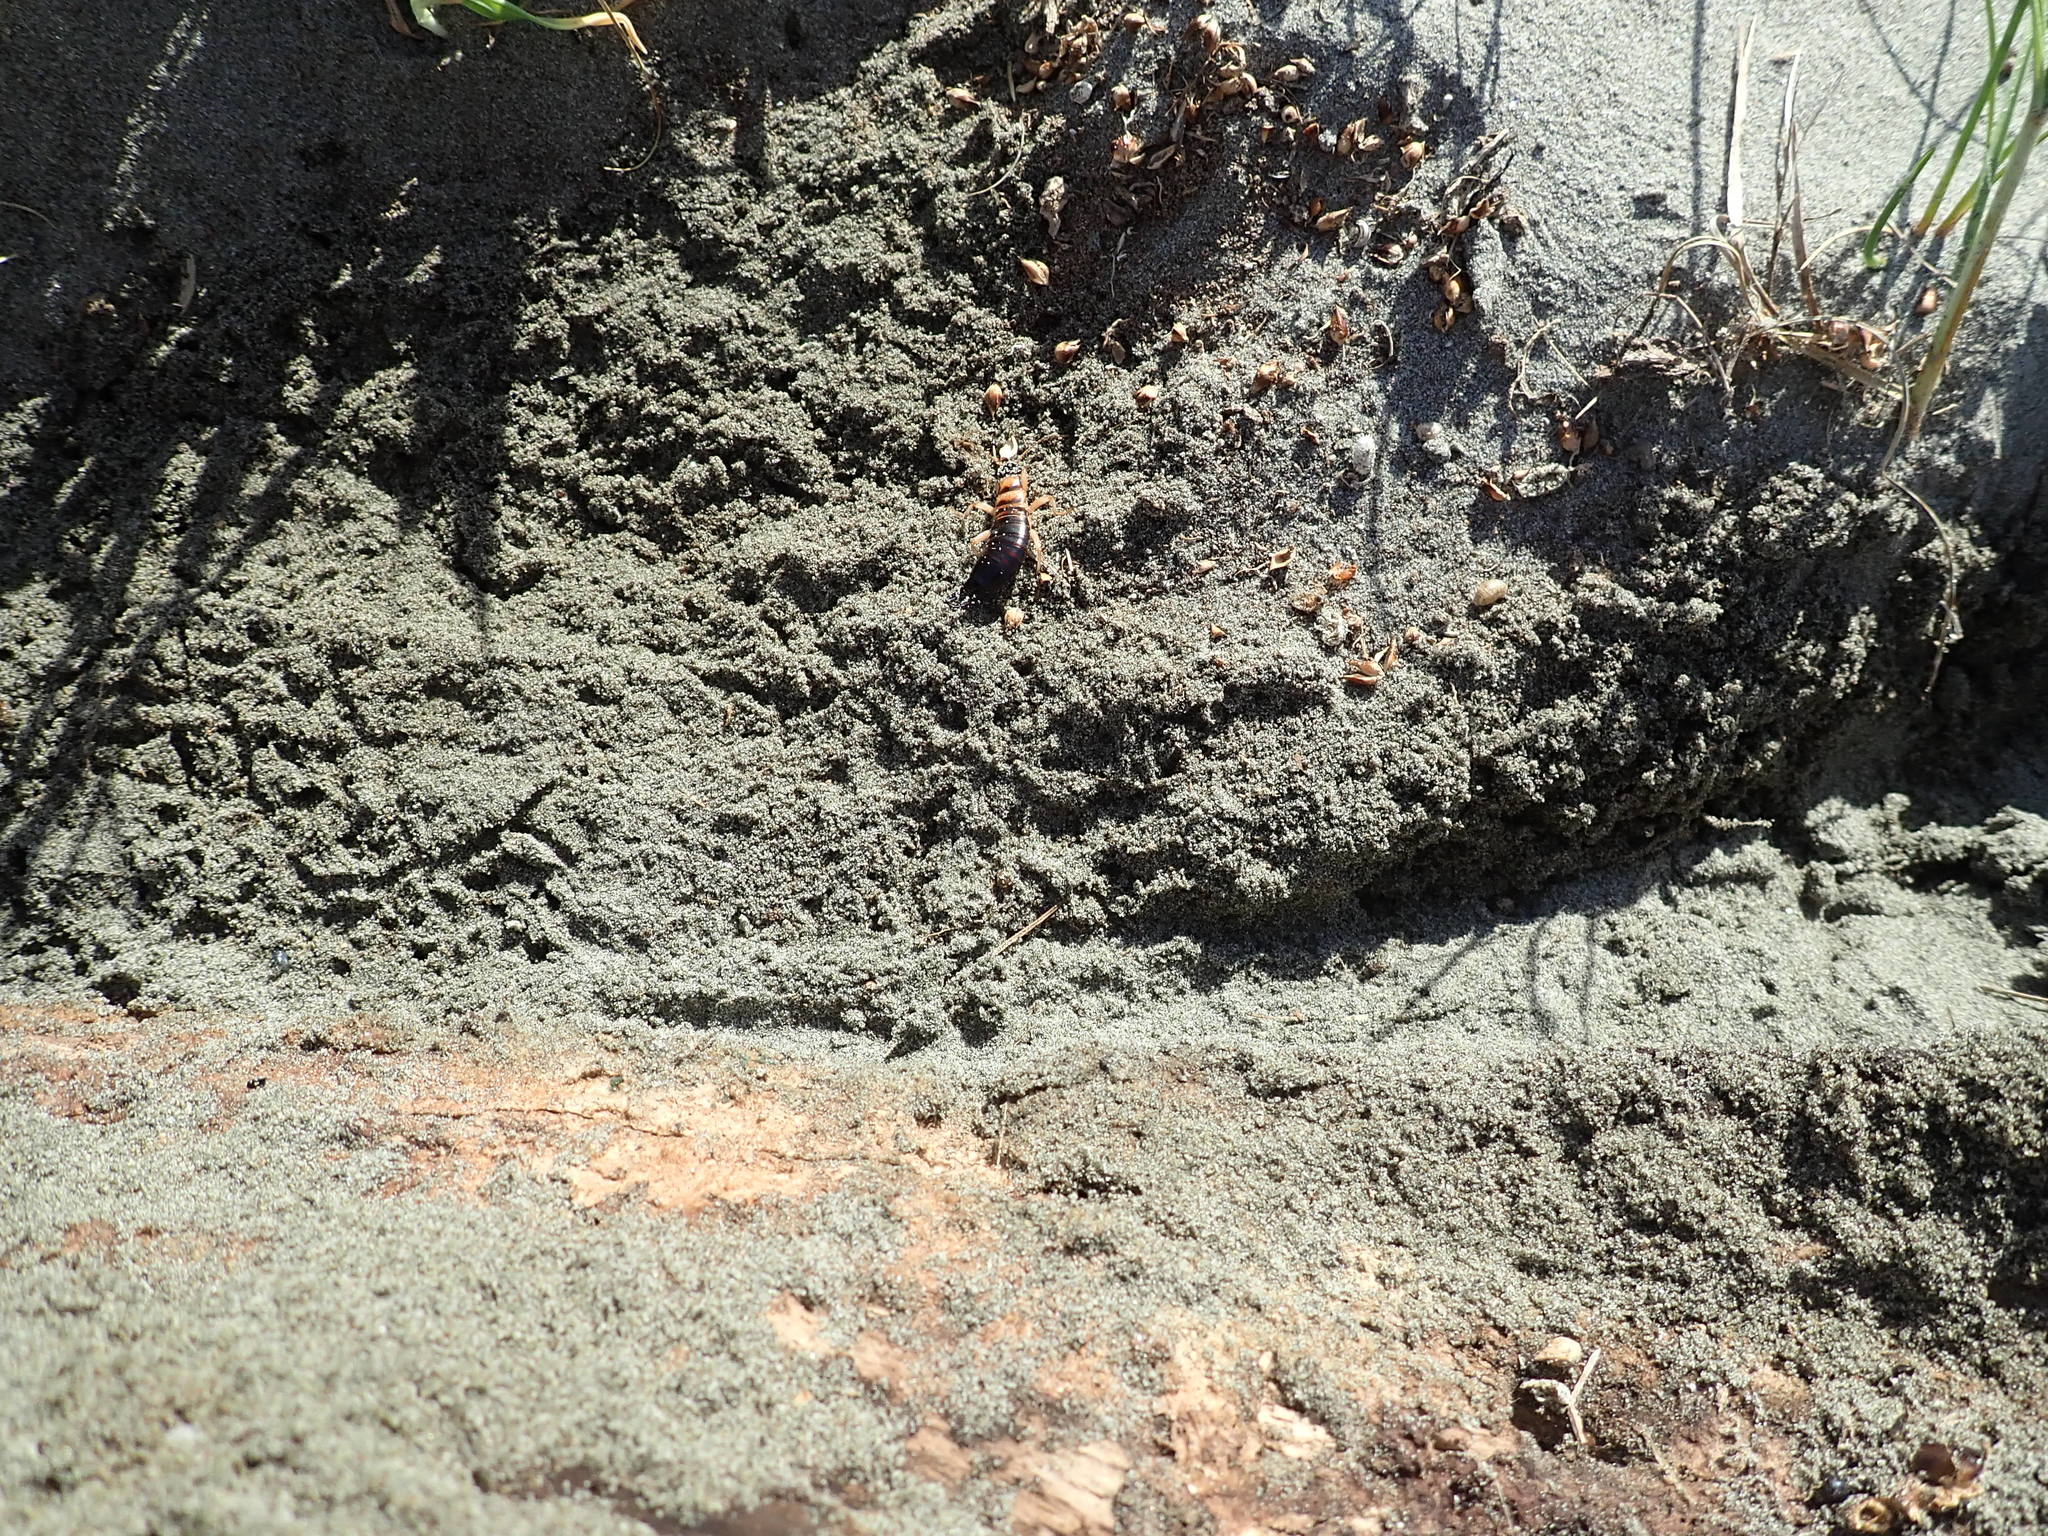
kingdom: Animalia
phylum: Arthropoda
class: Insecta
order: Dermaptera
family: Anisolabididae
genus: Anisolabis
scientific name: Anisolabis littorea
